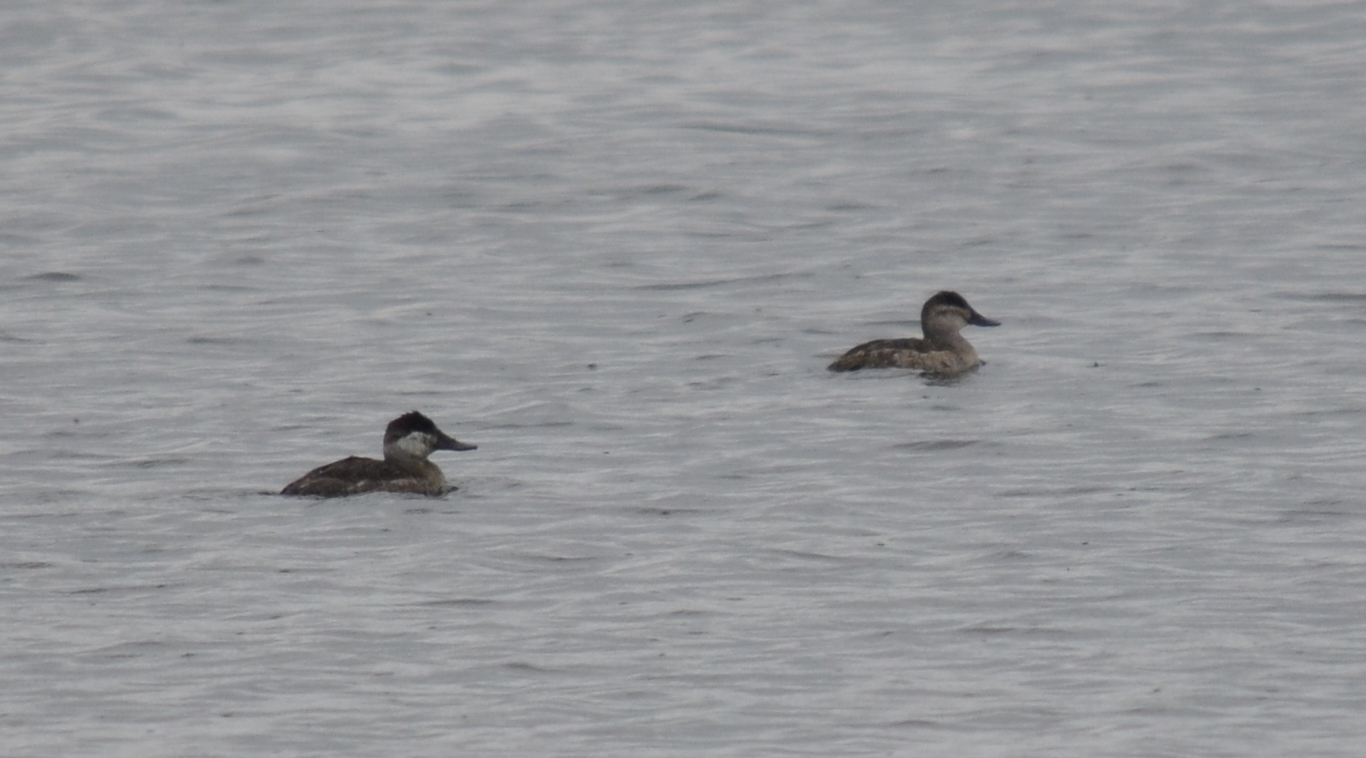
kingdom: Animalia
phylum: Chordata
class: Aves
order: Anseriformes
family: Anatidae
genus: Oxyura
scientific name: Oxyura jamaicensis
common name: Ruddy duck
